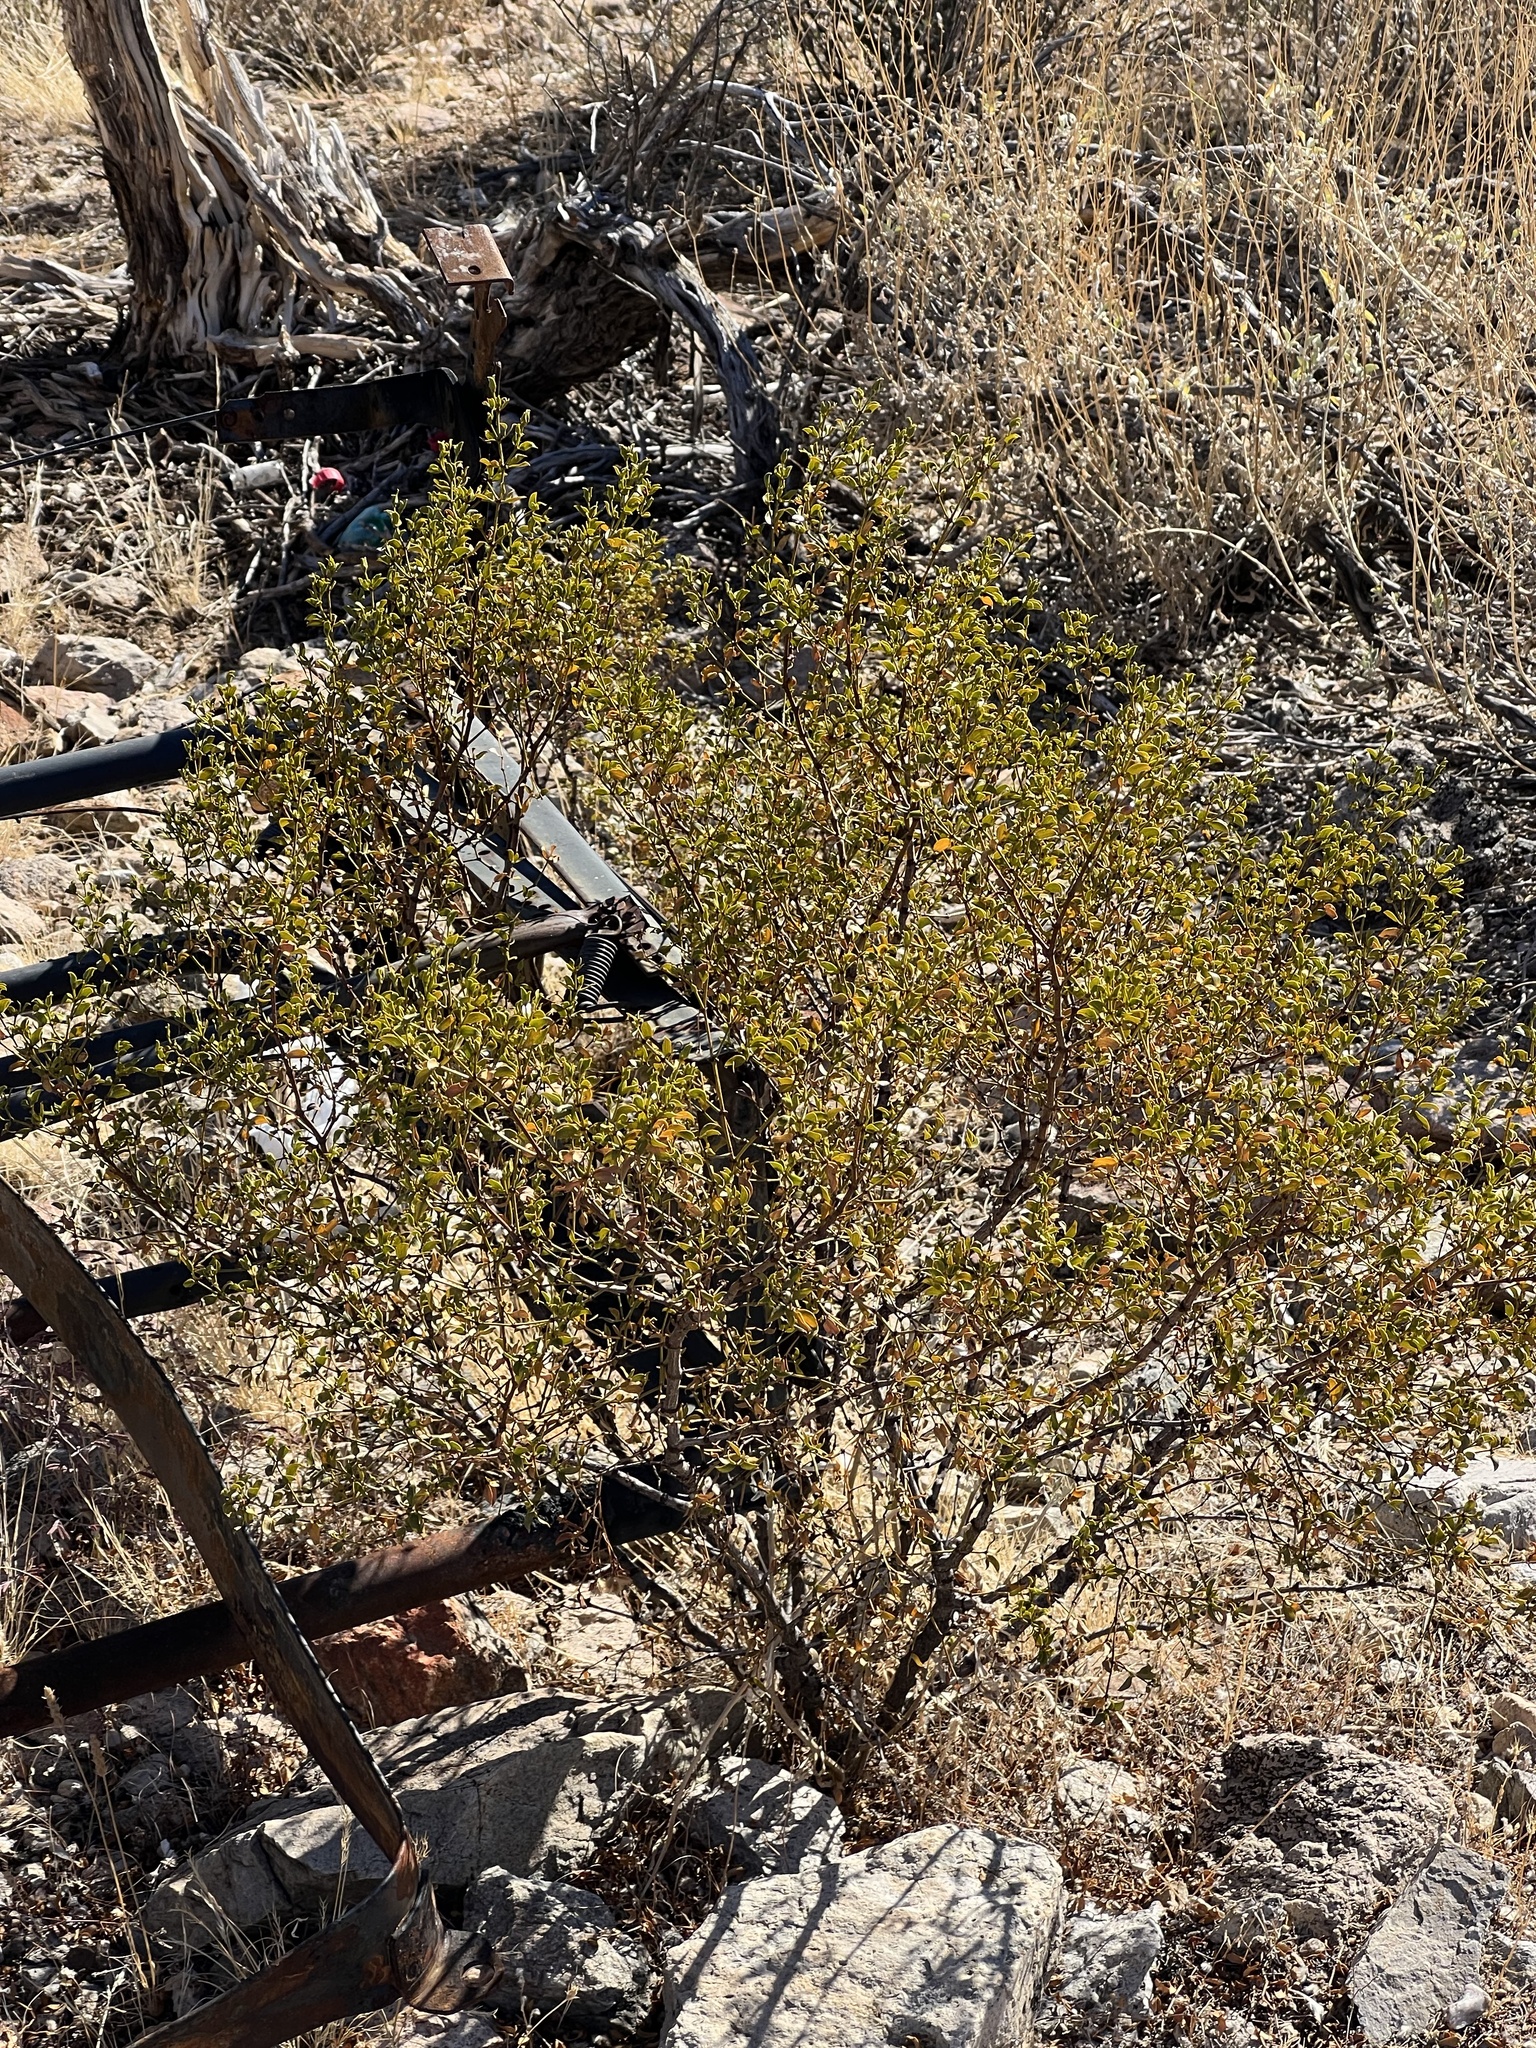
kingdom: Plantae
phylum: Tracheophyta
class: Magnoliopsida
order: Zygophyllales
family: Zygophyllaceae
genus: Larrea
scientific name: Larrea tridentata
